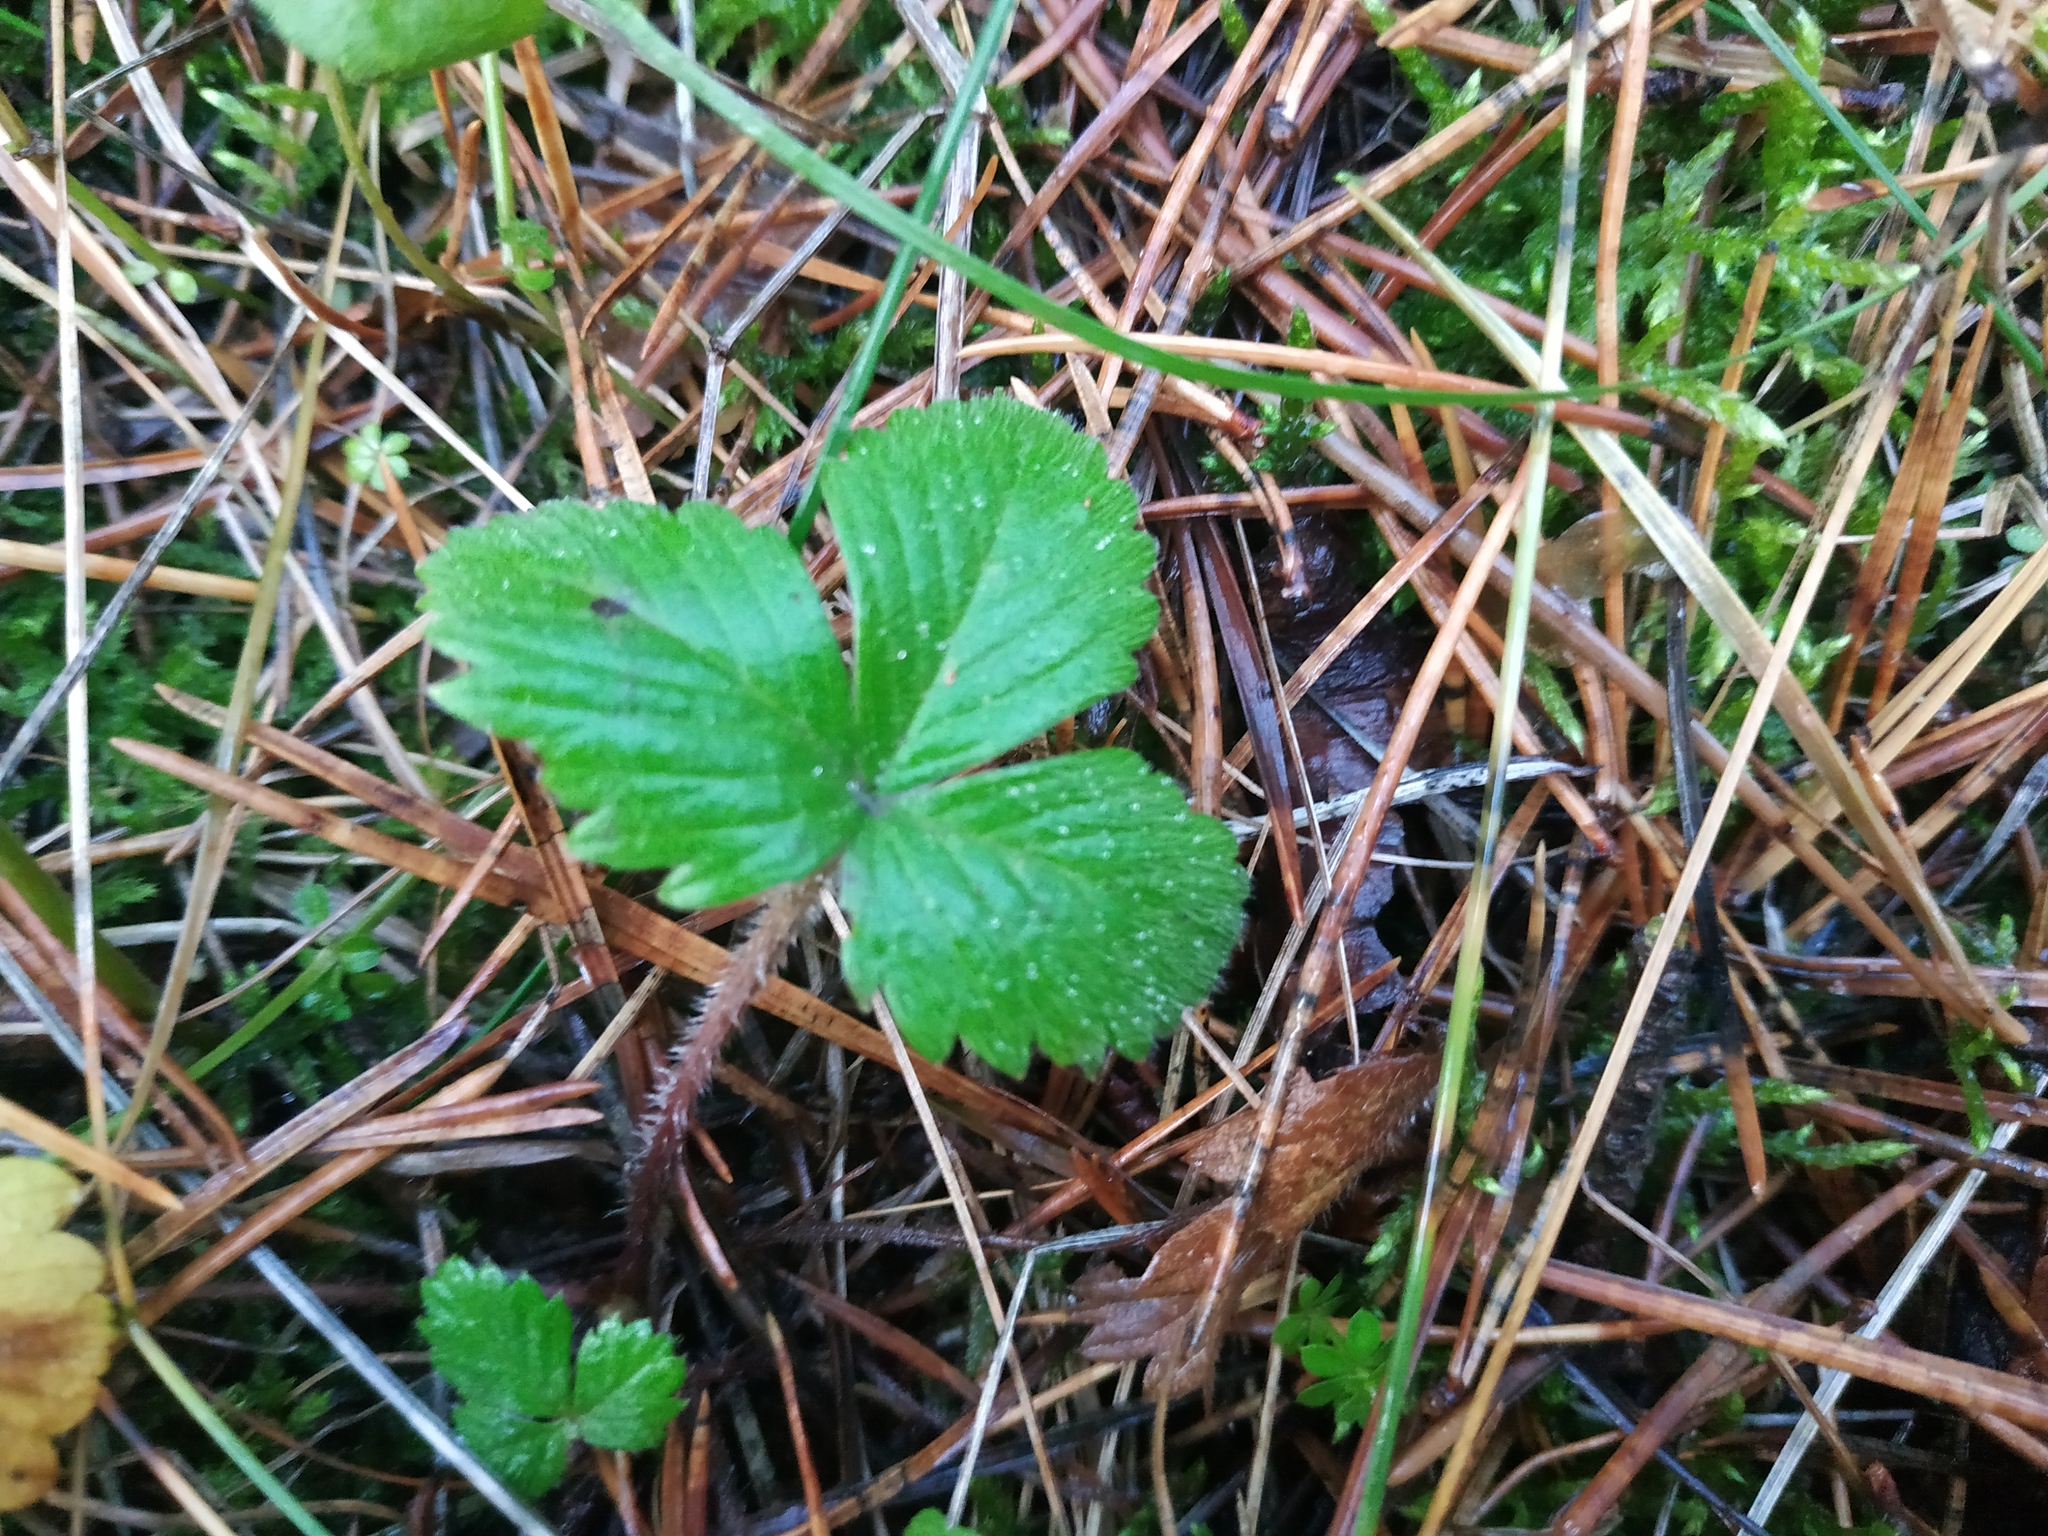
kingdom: Plantae
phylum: Tracheophyta
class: Magnoliopsida
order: Rosales
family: Rosaceae
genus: Fragaria
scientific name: Fragaria vesca
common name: Wild strawberry
